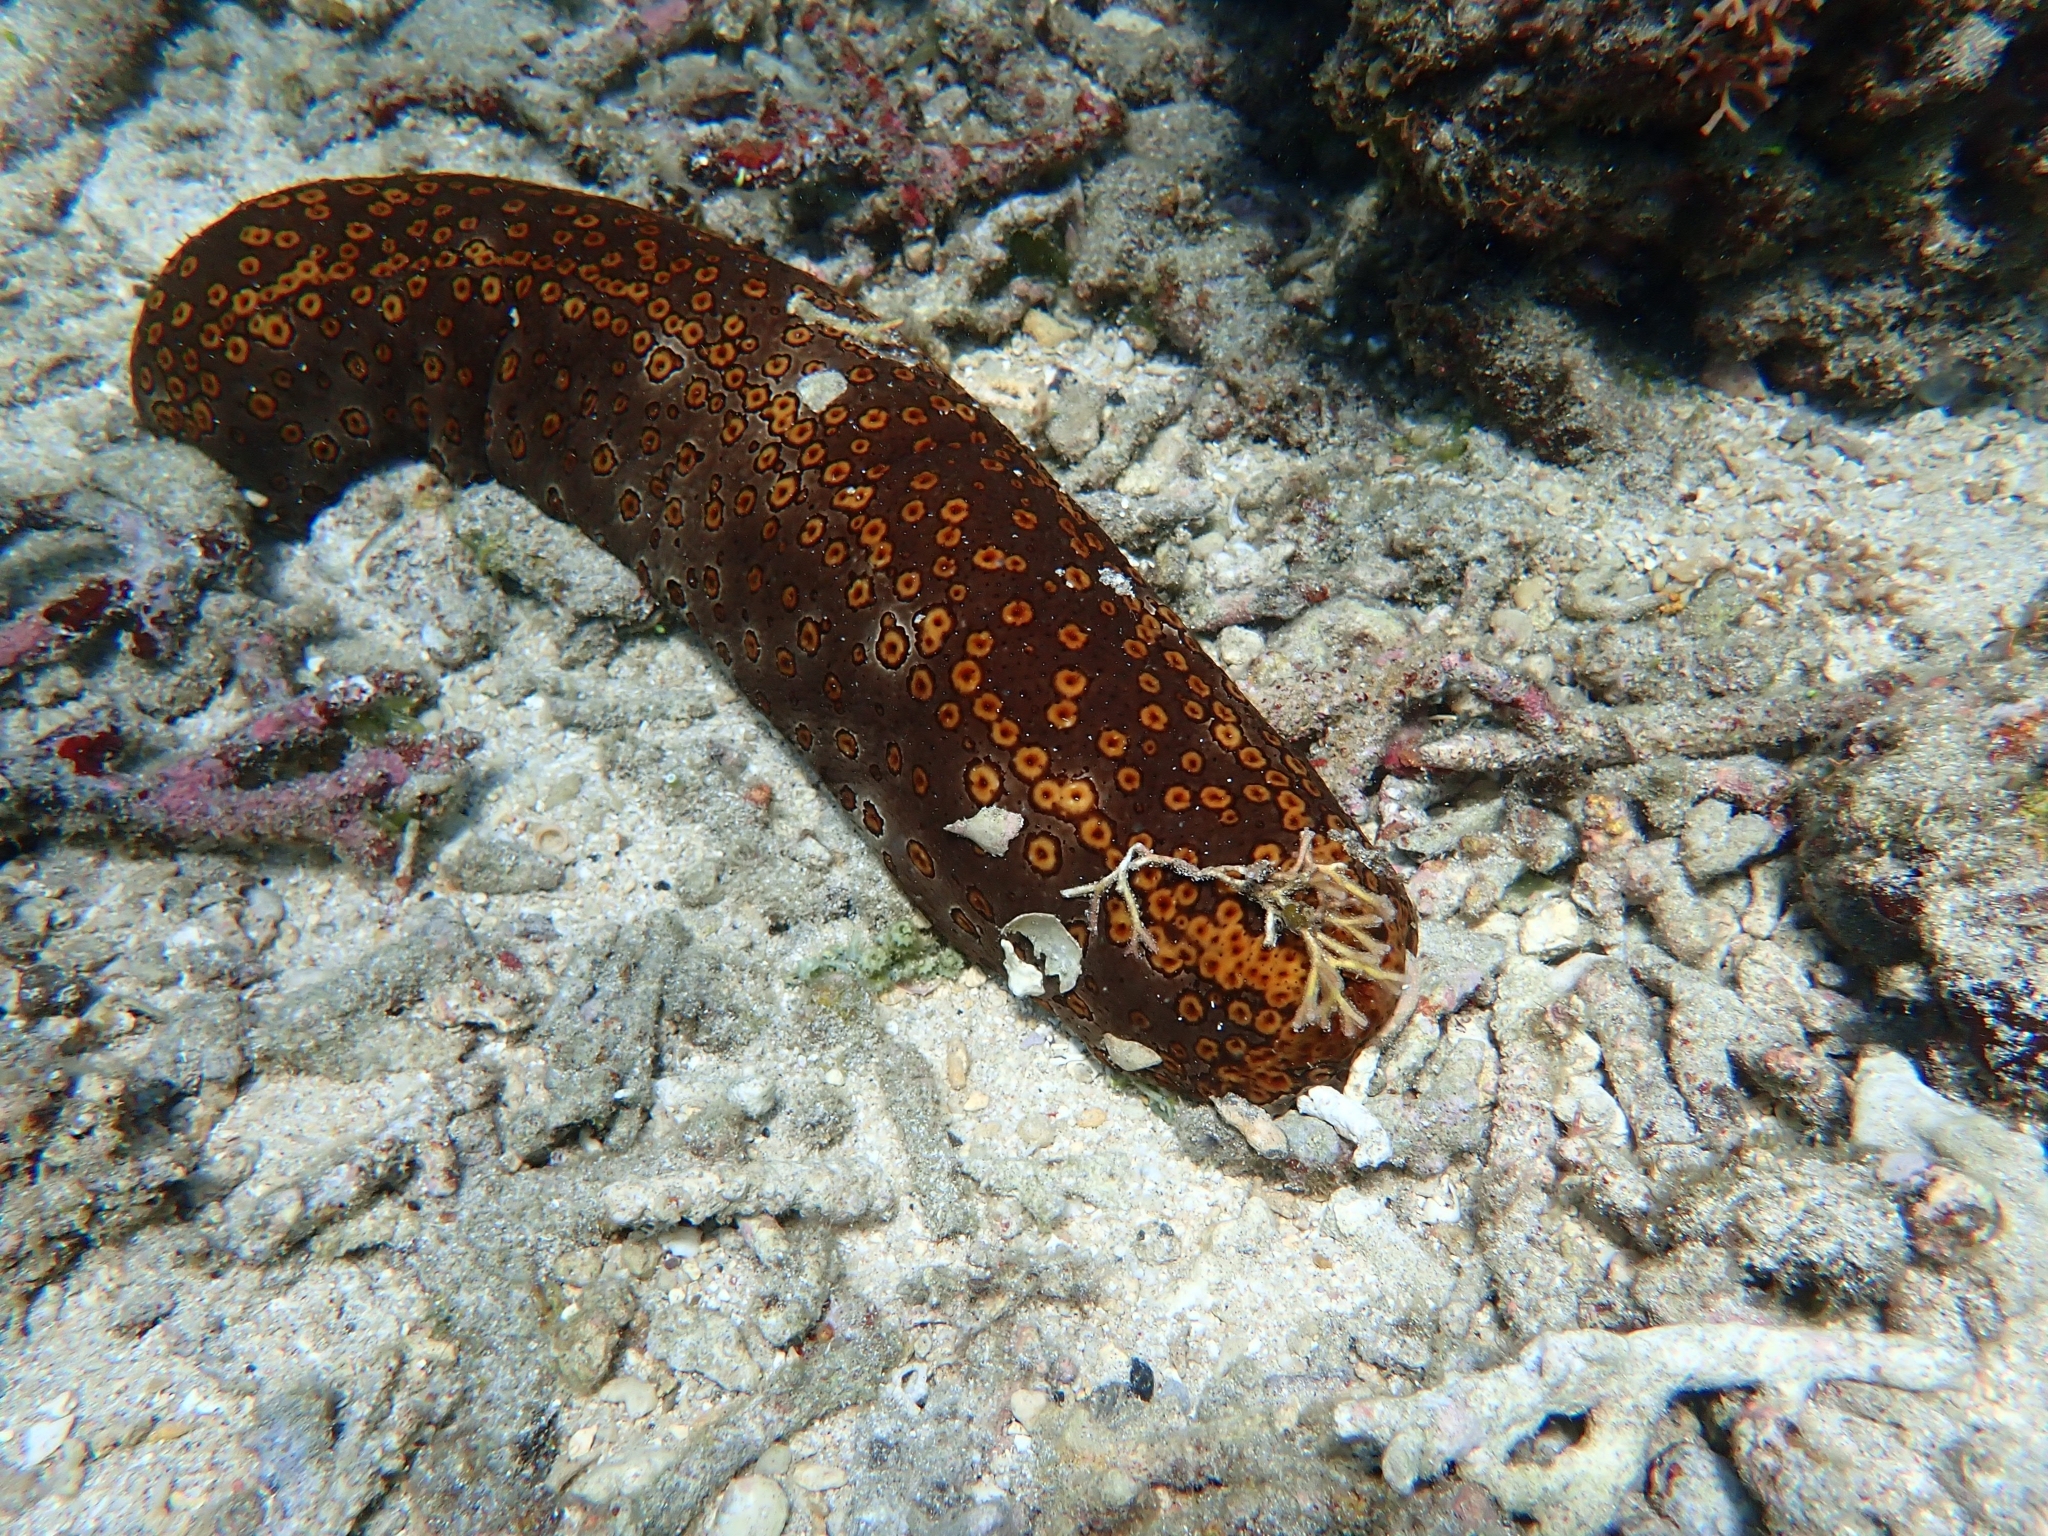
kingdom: Animalia
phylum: Echinodermata
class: Holothuroidea
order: Holothuriida
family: Holothuriidae
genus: Bohadschia
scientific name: Bohadschia argus
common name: Leopardfish
